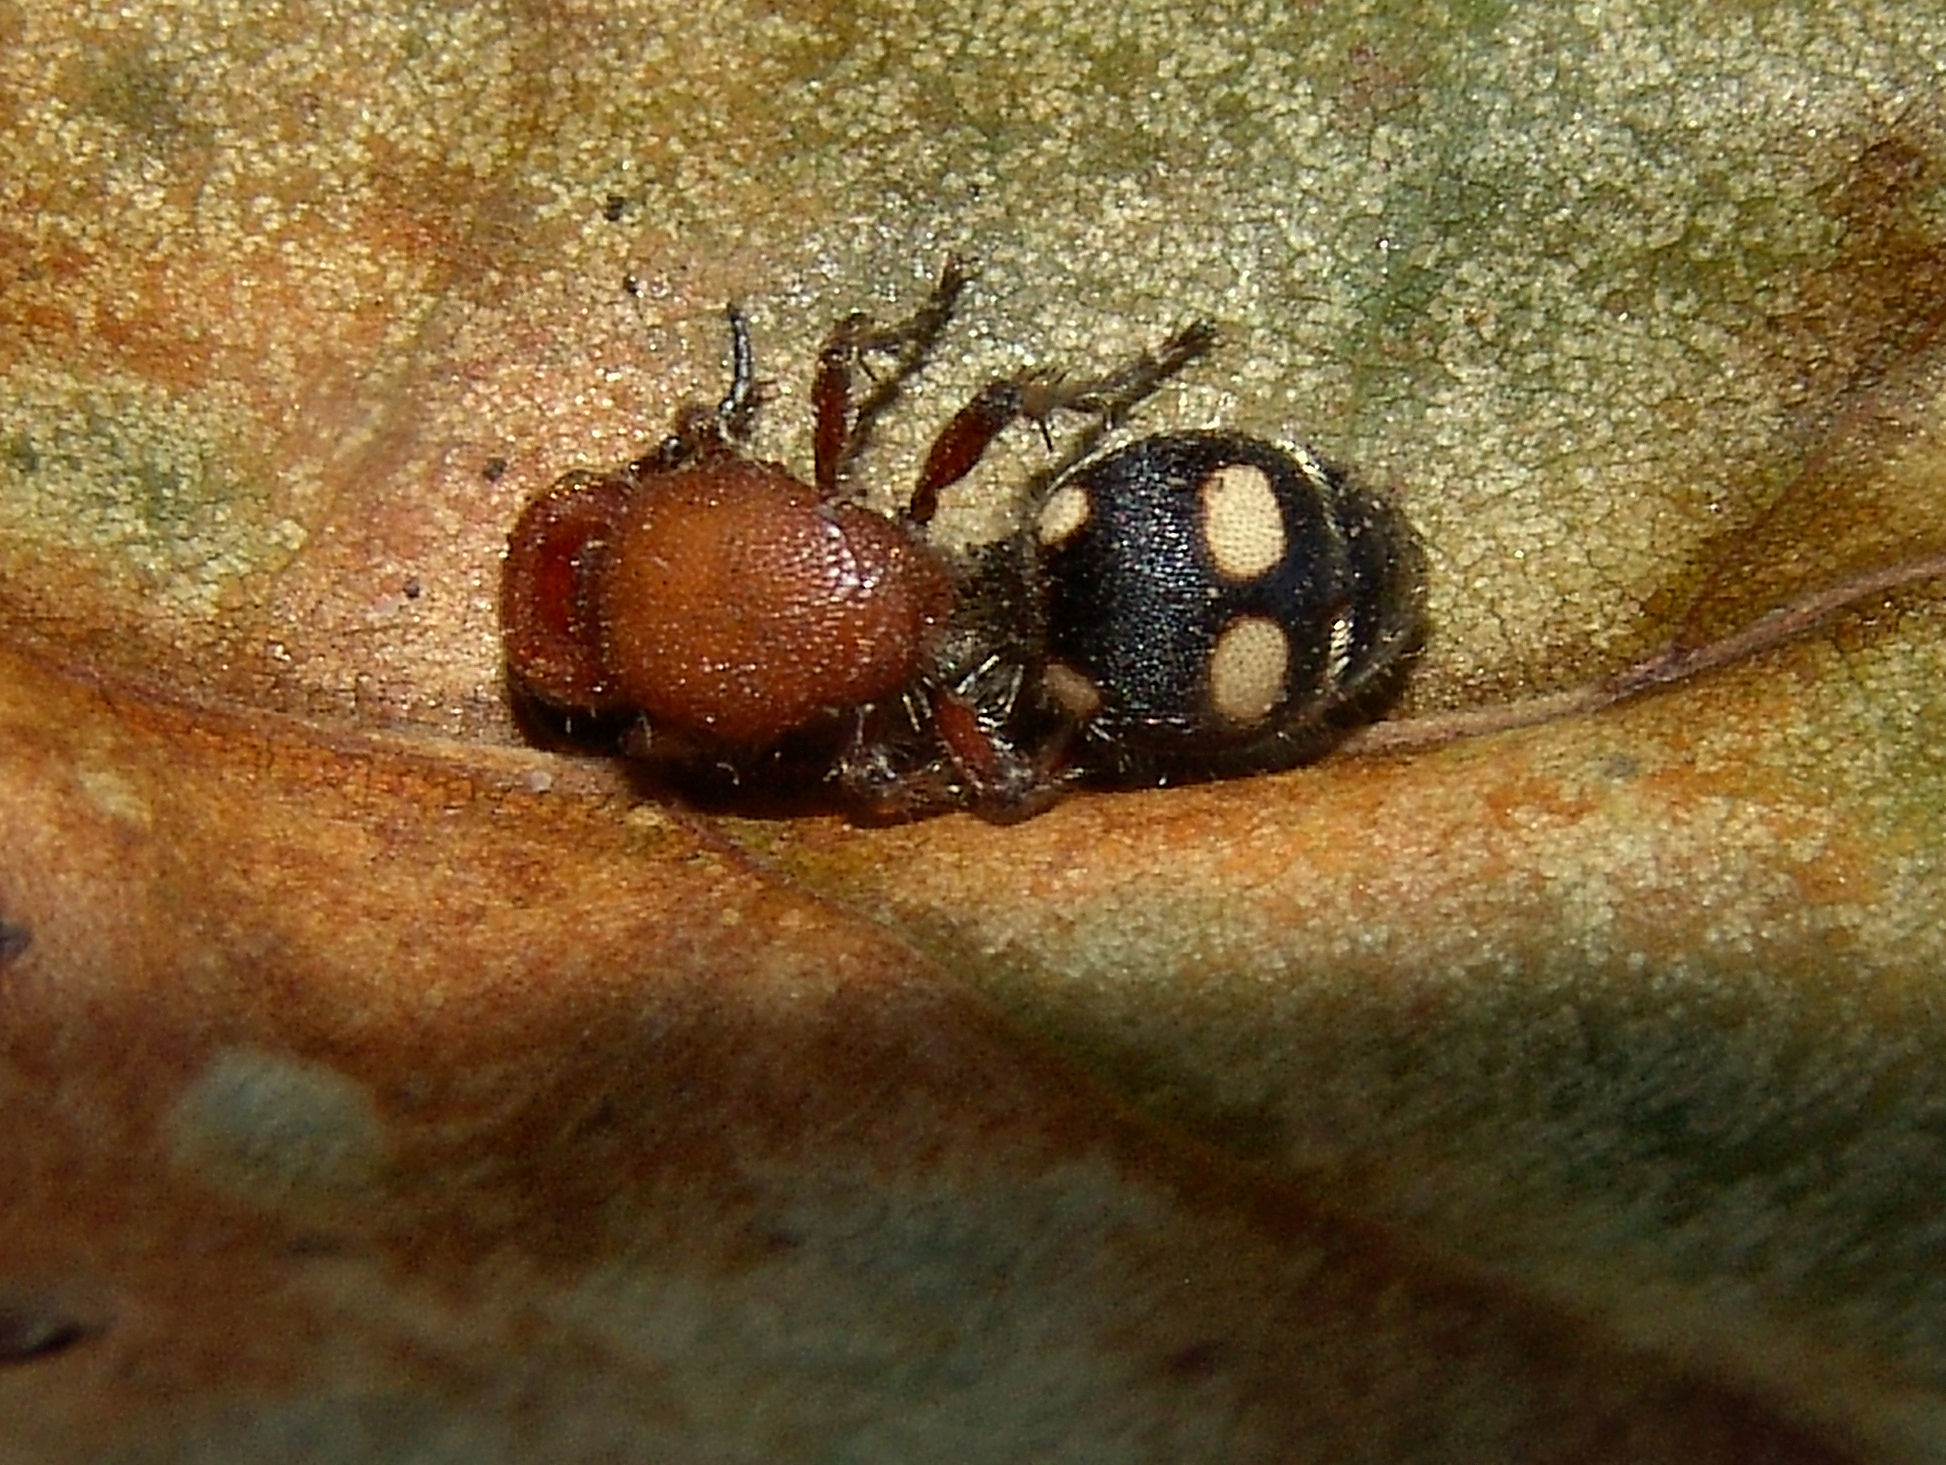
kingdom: Animalia
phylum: Arthropoda
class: Insecta
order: Hymenoptera
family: Mutillidae
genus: Dasymutilla
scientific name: Dasymutilla
